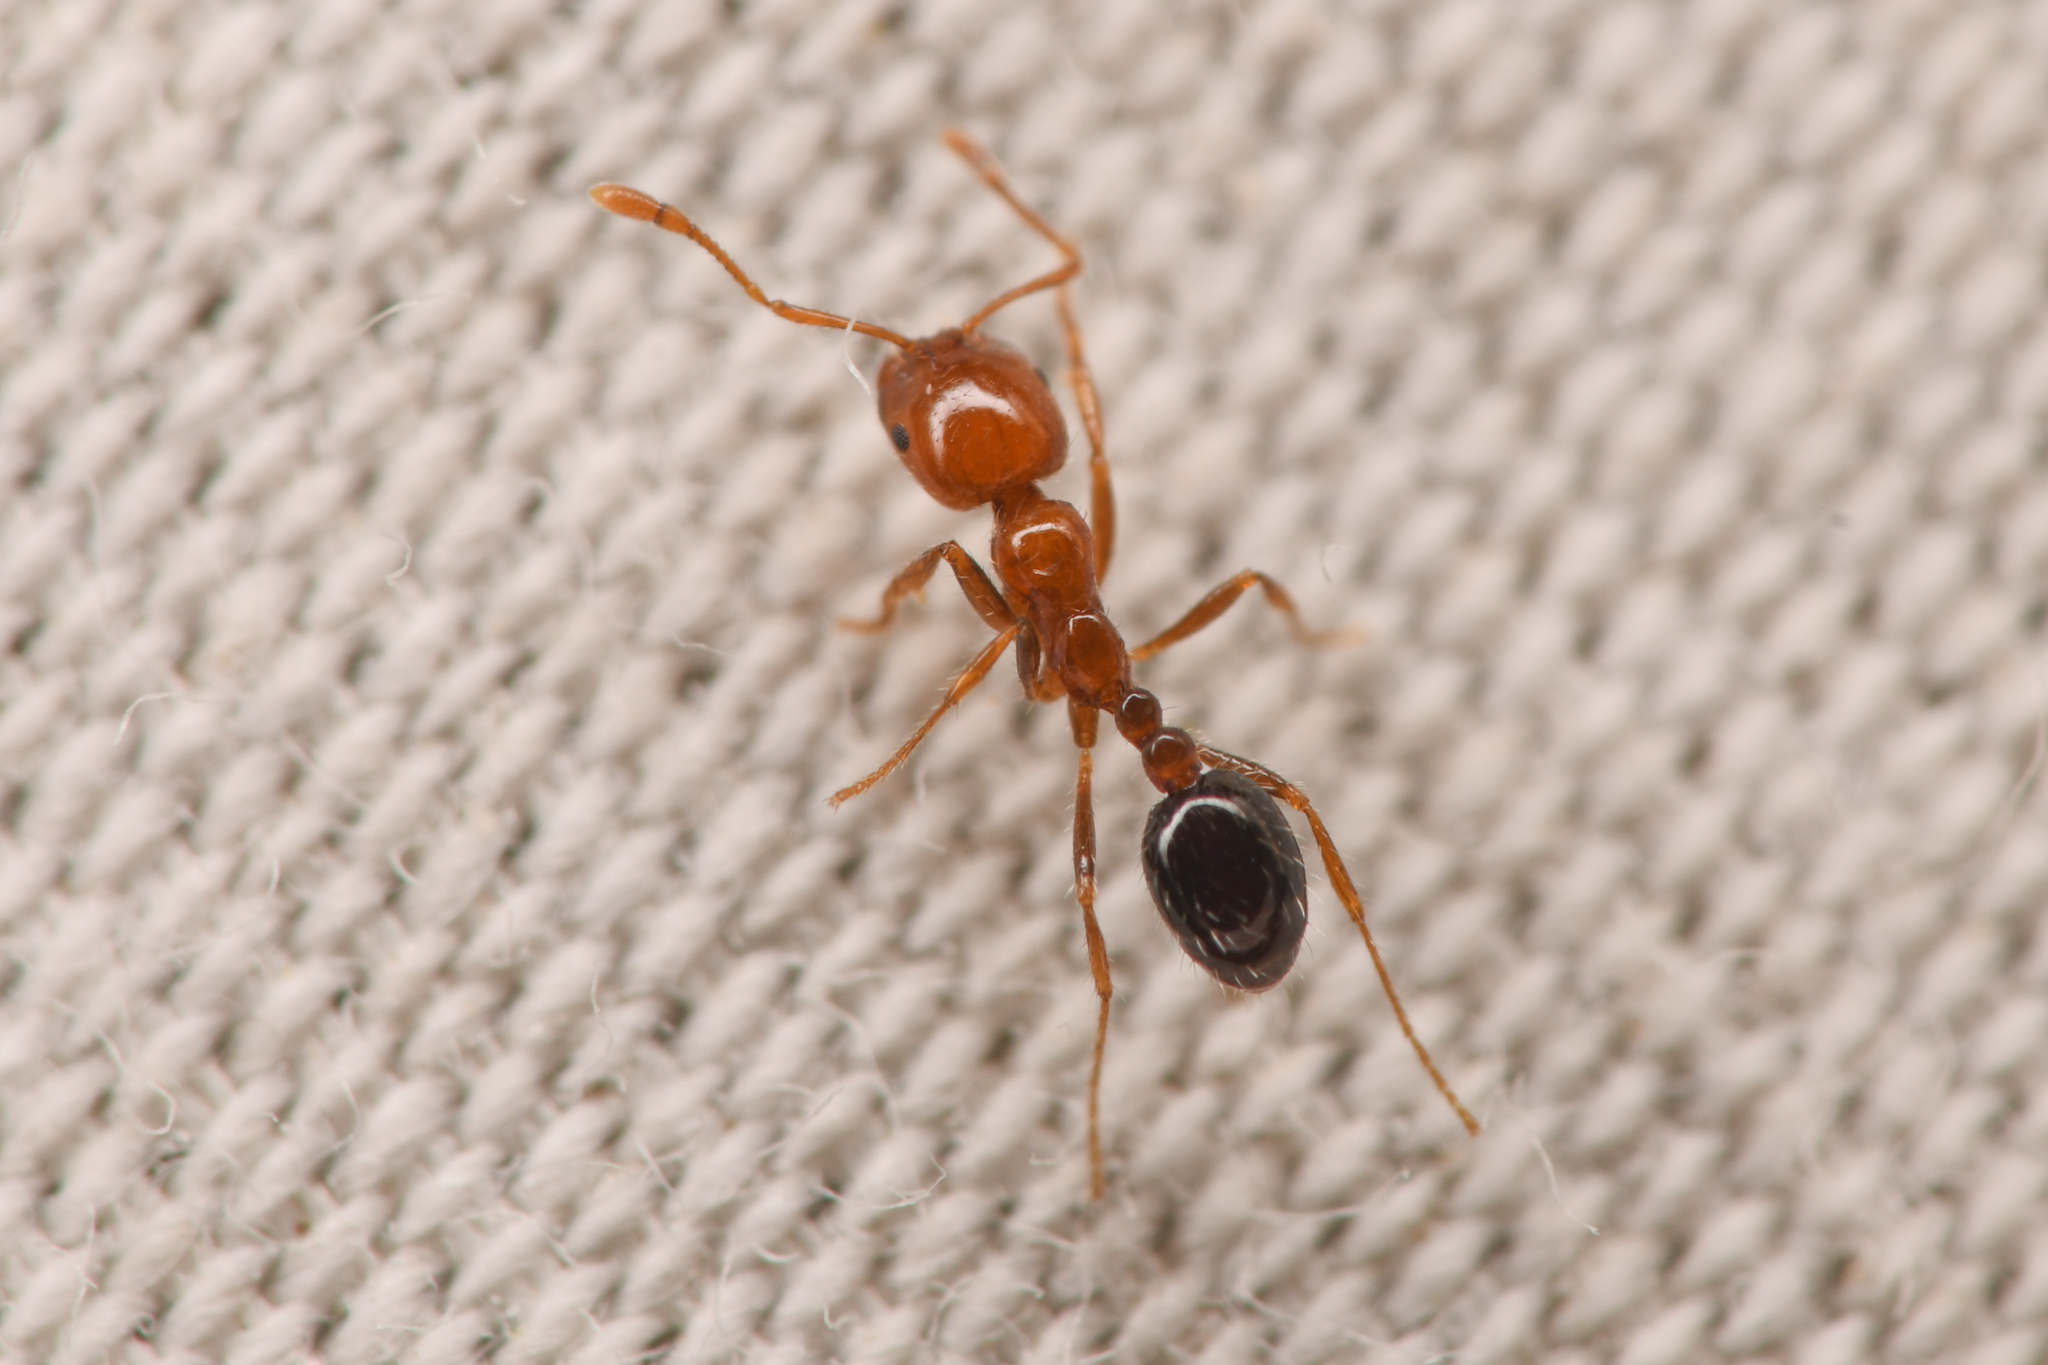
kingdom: Animalia
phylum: Arthropoda
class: Insecta
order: Hymenoptera
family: Formicidae
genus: Solenopsis
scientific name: Solenopsis xyloni
